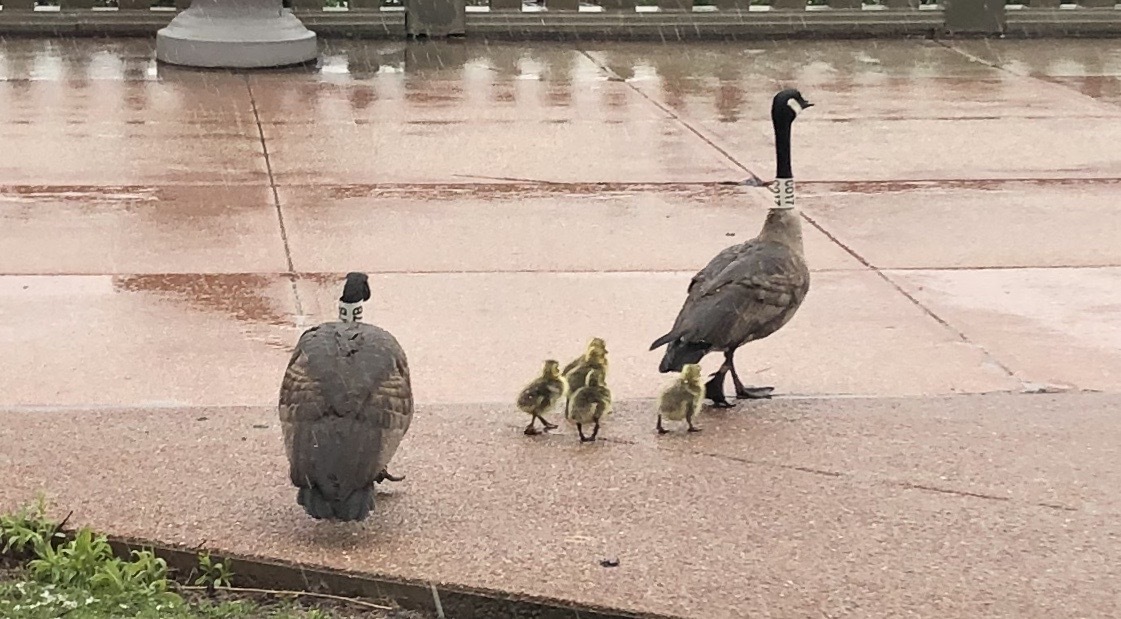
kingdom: Animalia
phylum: Chordata
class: Aves
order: Anseriformes
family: Anatidae
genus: Branta
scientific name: Branta canadensis
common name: Canada goose
